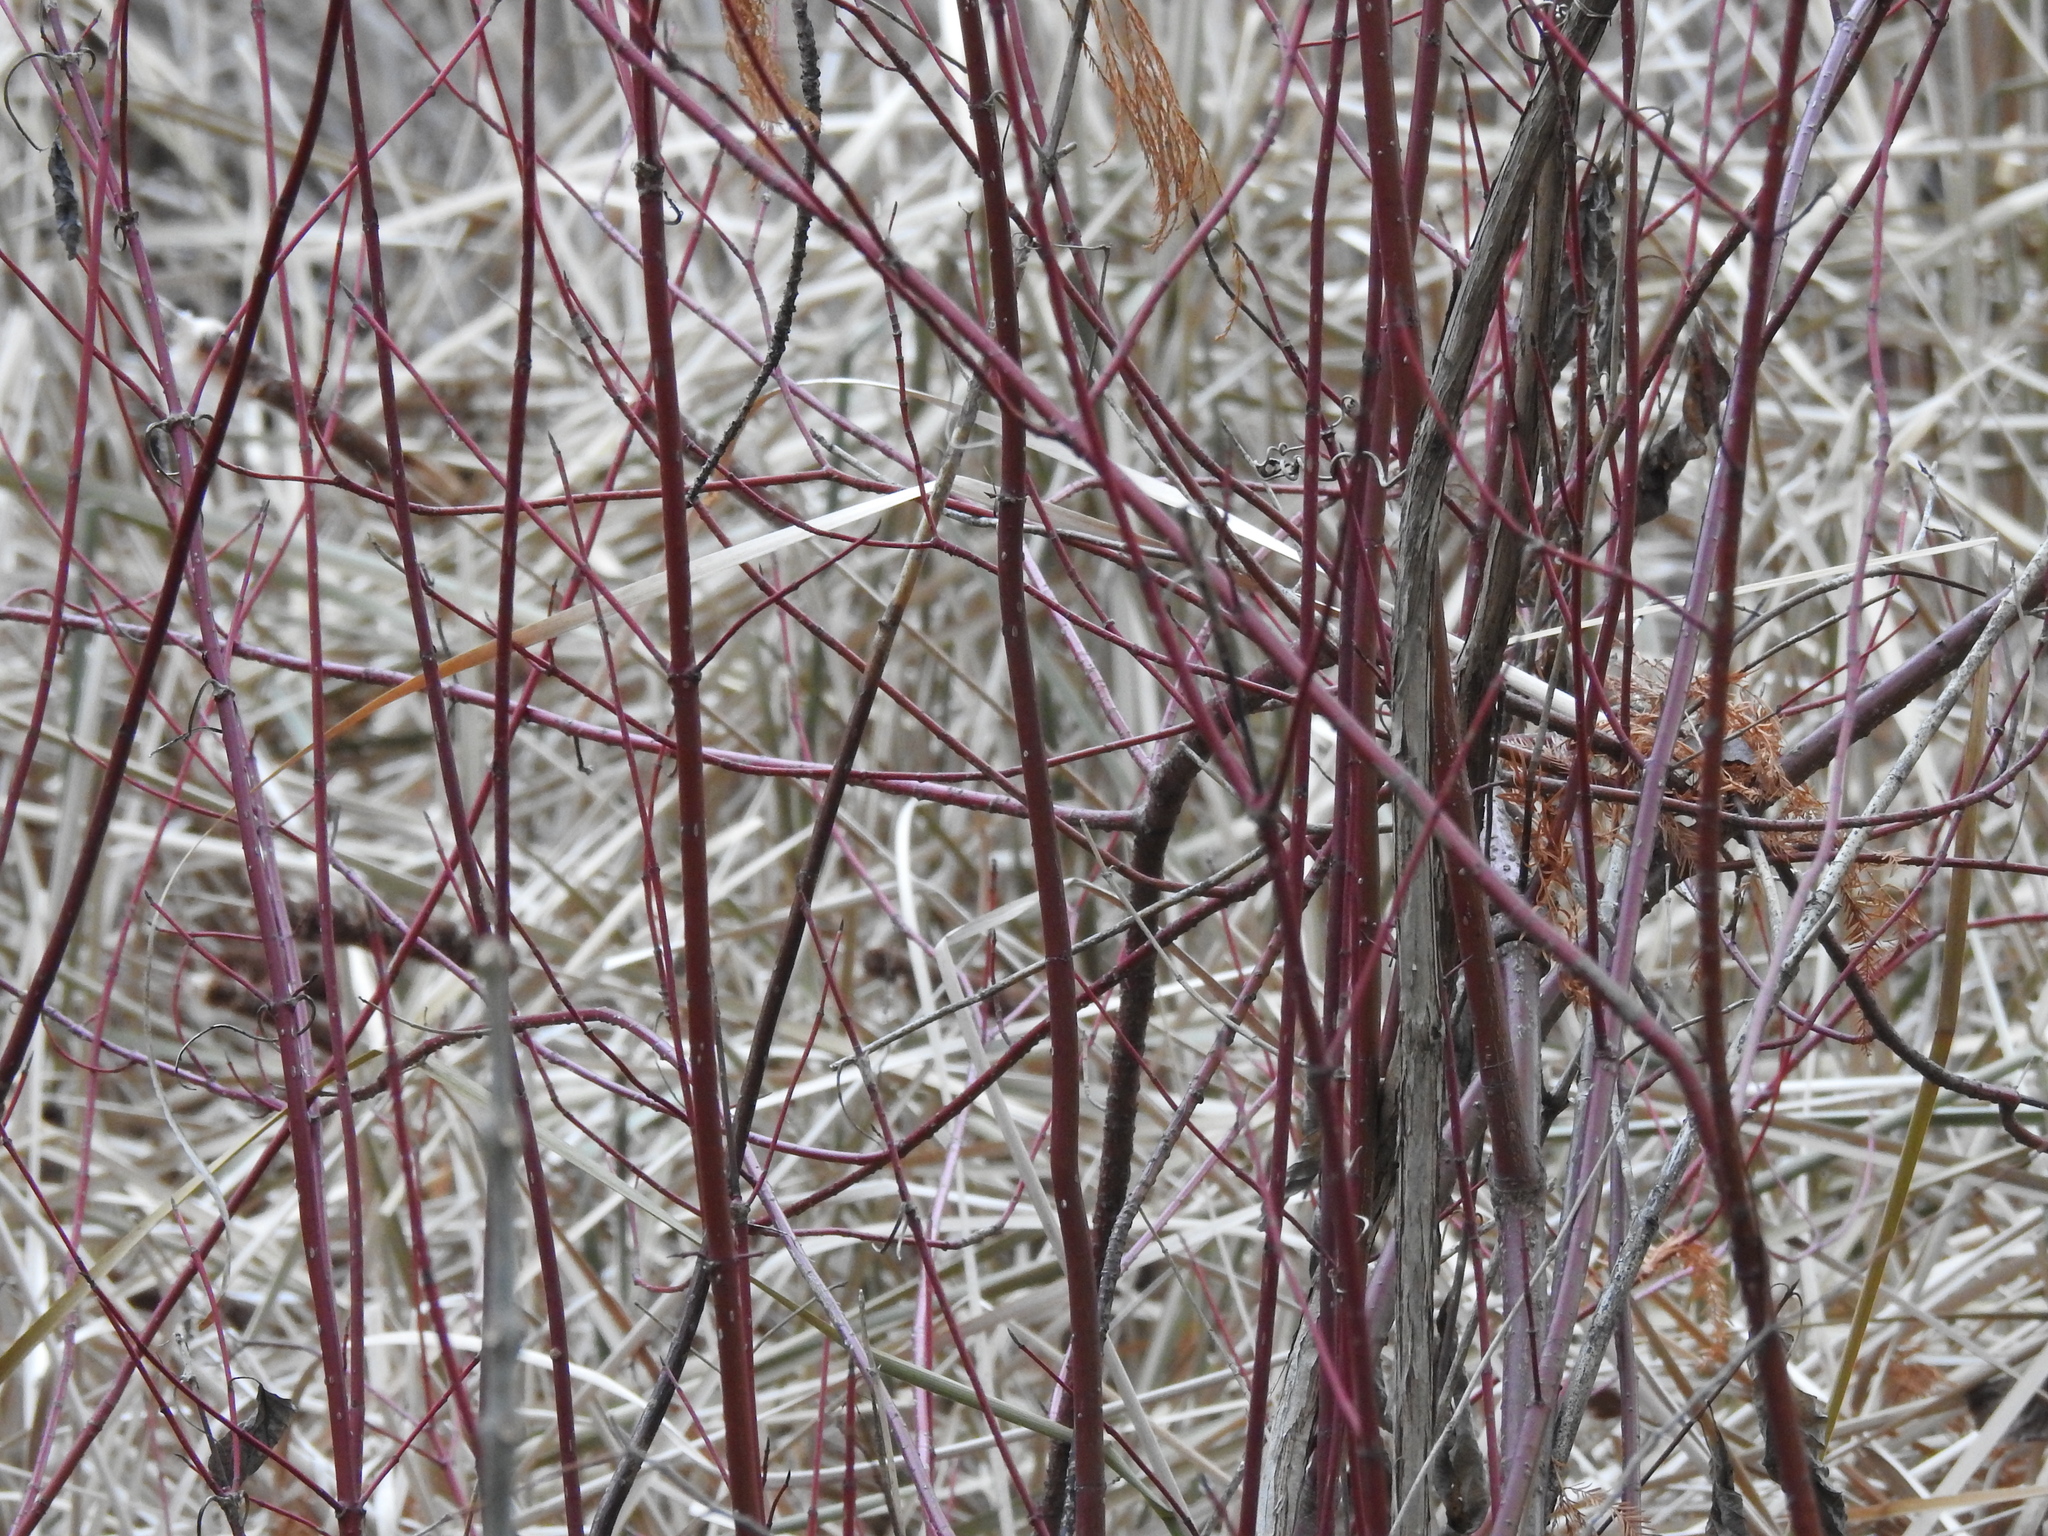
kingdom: Plantae
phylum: Tracheophyta
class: Magnoliopsida
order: Cornales
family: Cornaceae
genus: Cornus
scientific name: Cornus amomum
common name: Silky dogwood
